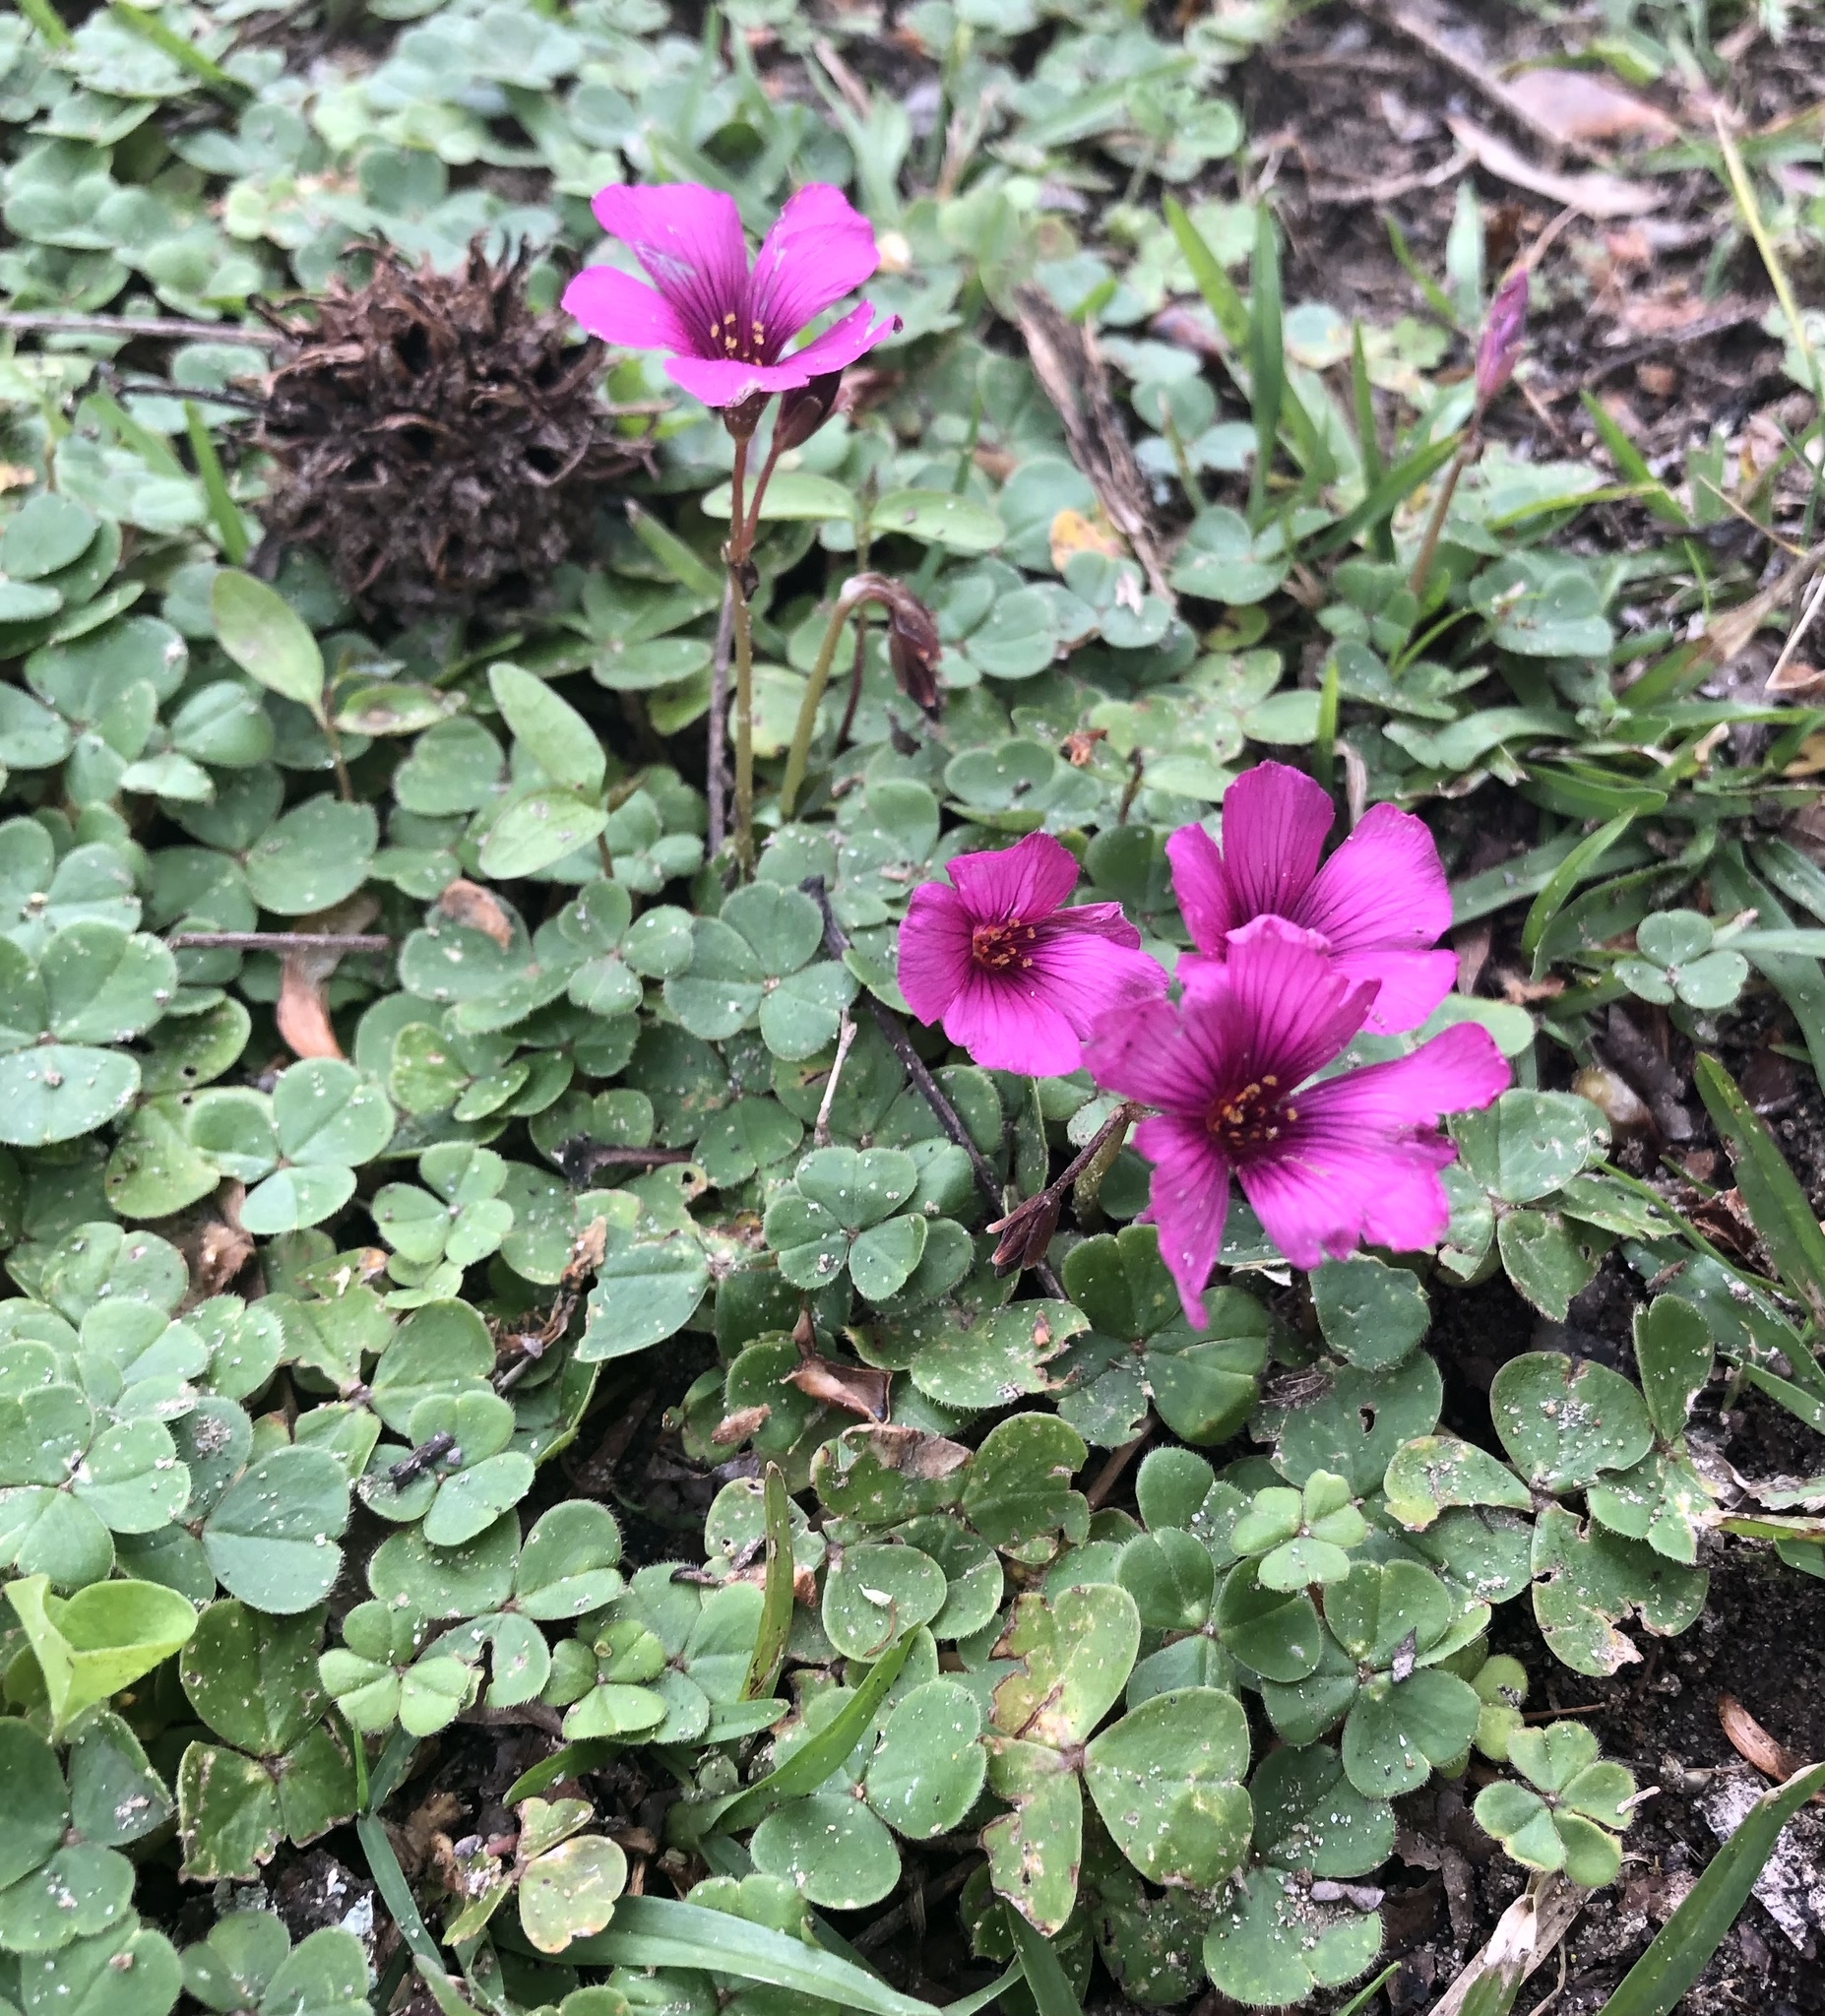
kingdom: Plantae
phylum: Tracheophyta
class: Magnoliopsida
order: Oxalidales
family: Oxalidaceae
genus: Oxalis
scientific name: Oxalis brasiliensis
